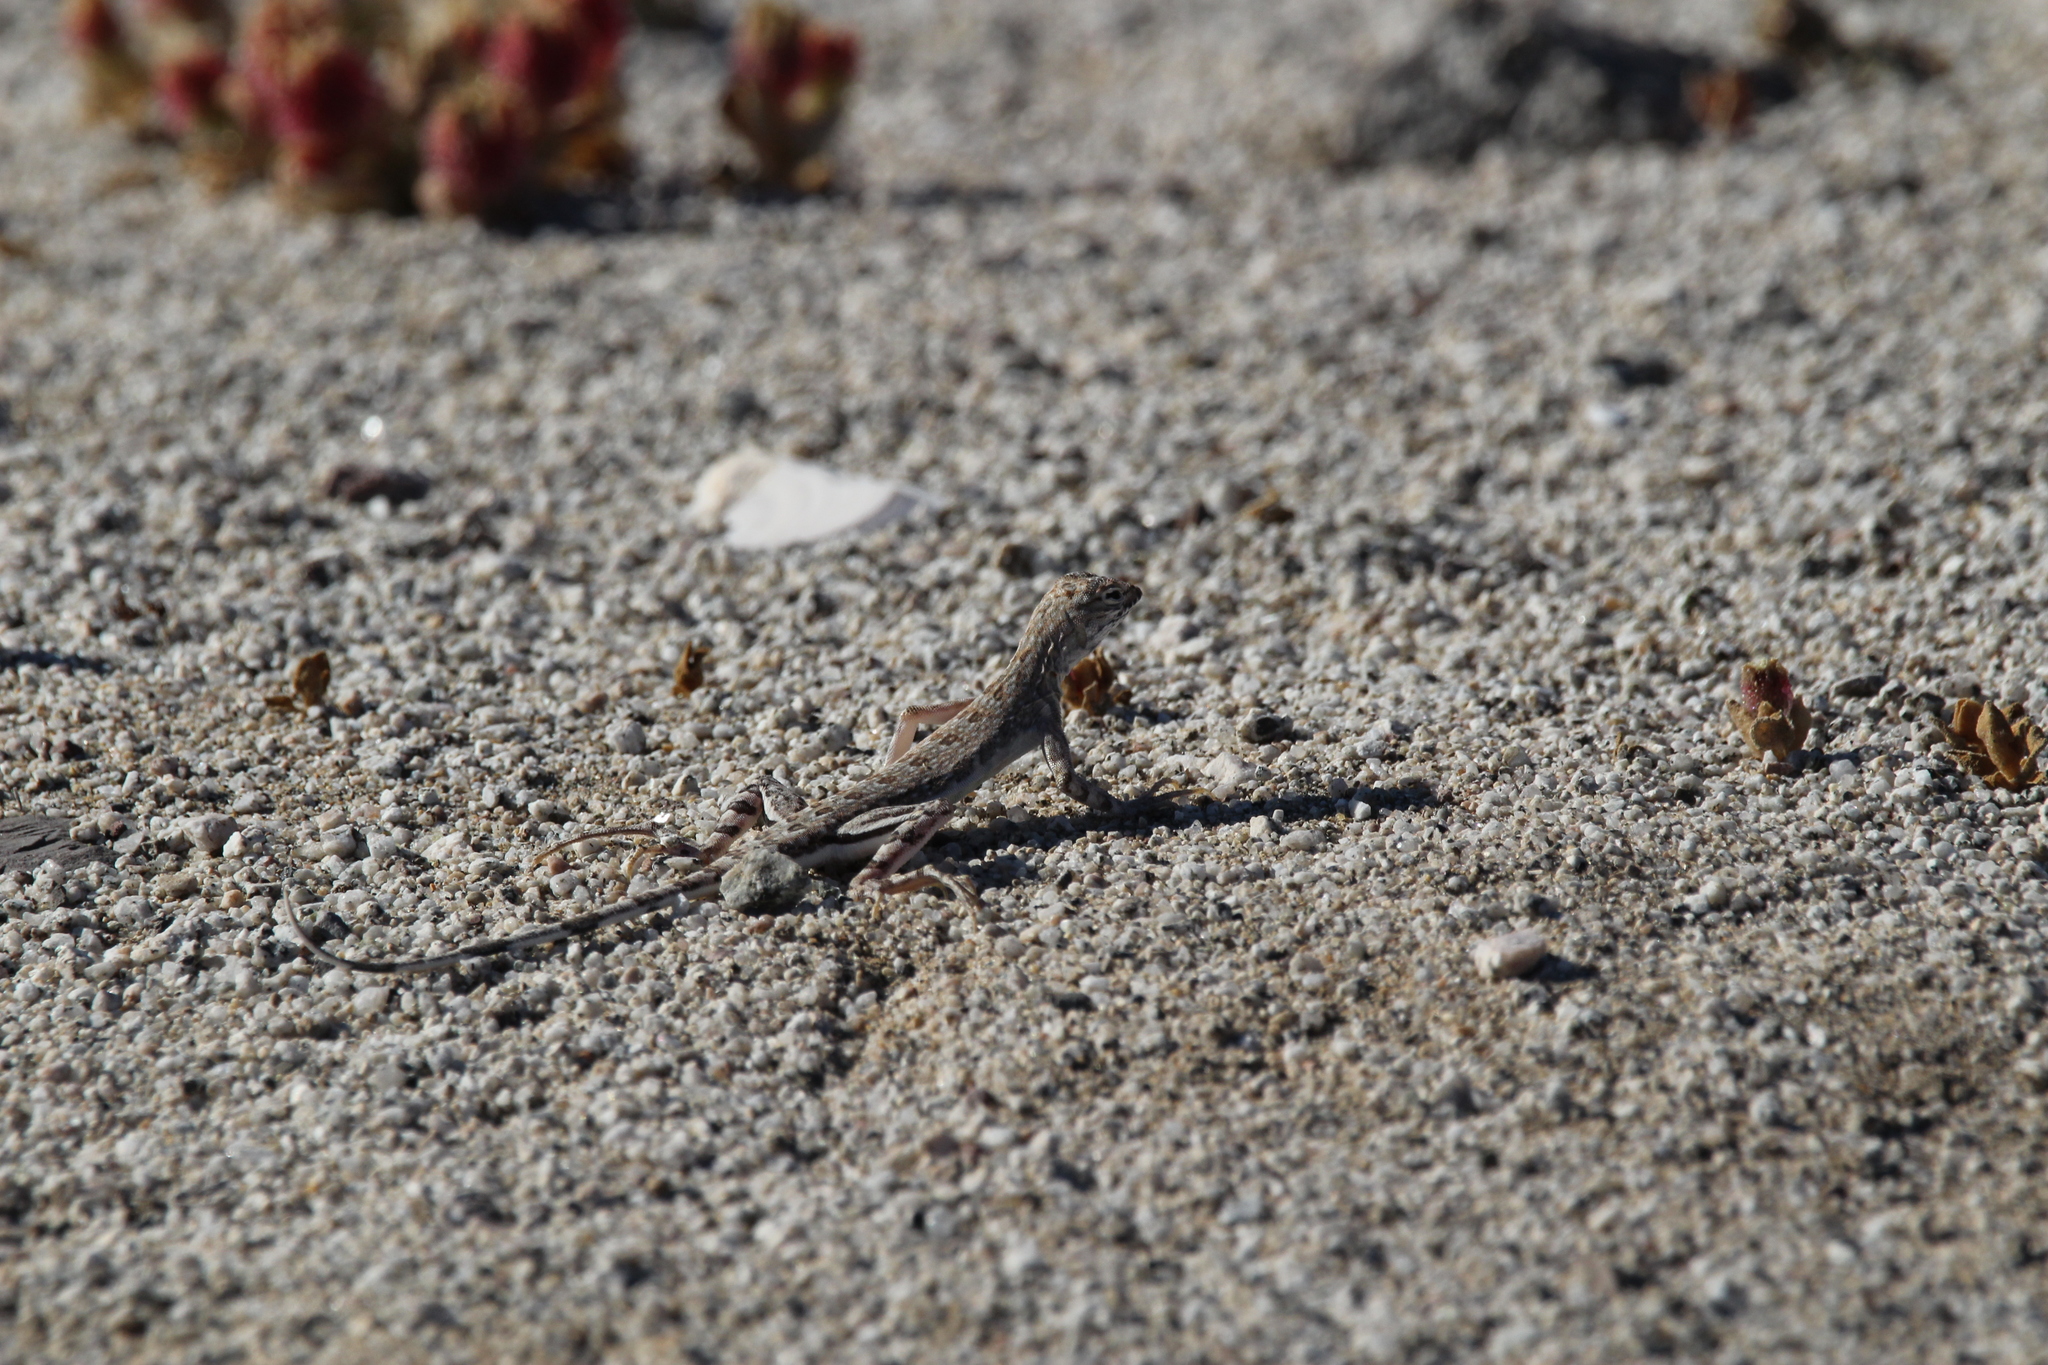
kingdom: Animalia
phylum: Chordata
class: Squamata
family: Phrynosomatidae
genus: Callisaurus
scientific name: Callisaurus draconoides
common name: Zebra-tailed lizard
